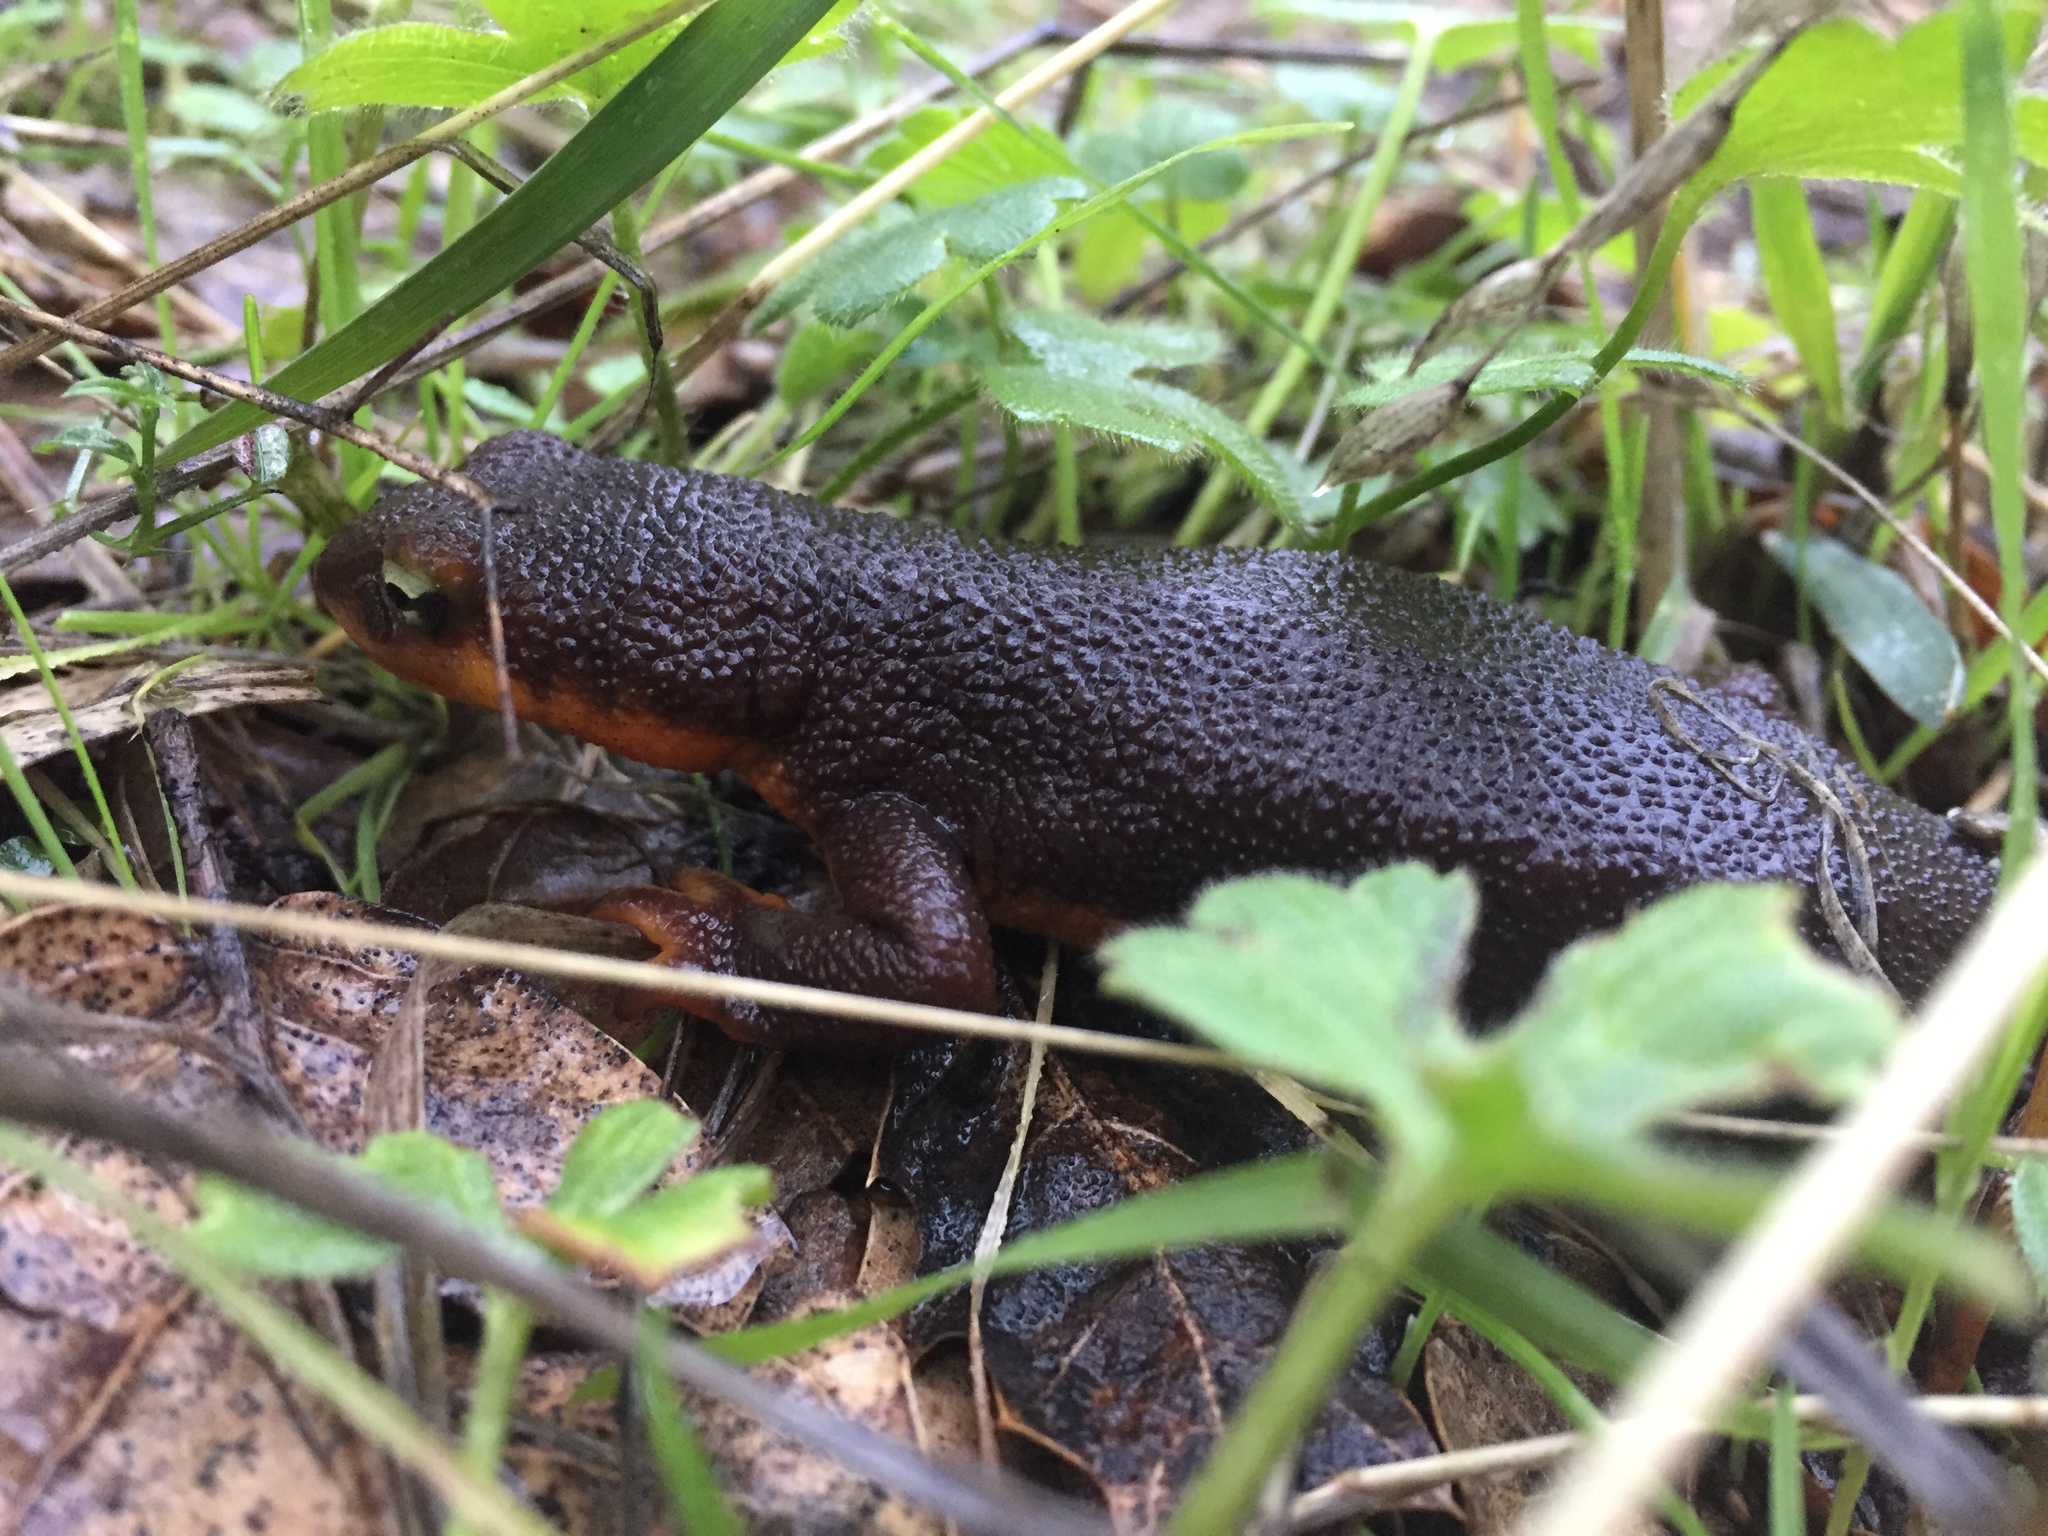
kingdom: Animalia
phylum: Chordata
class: Amphibia
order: Caudata
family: Salamandridae
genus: Taricha
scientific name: Taricha torosa
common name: California newt
